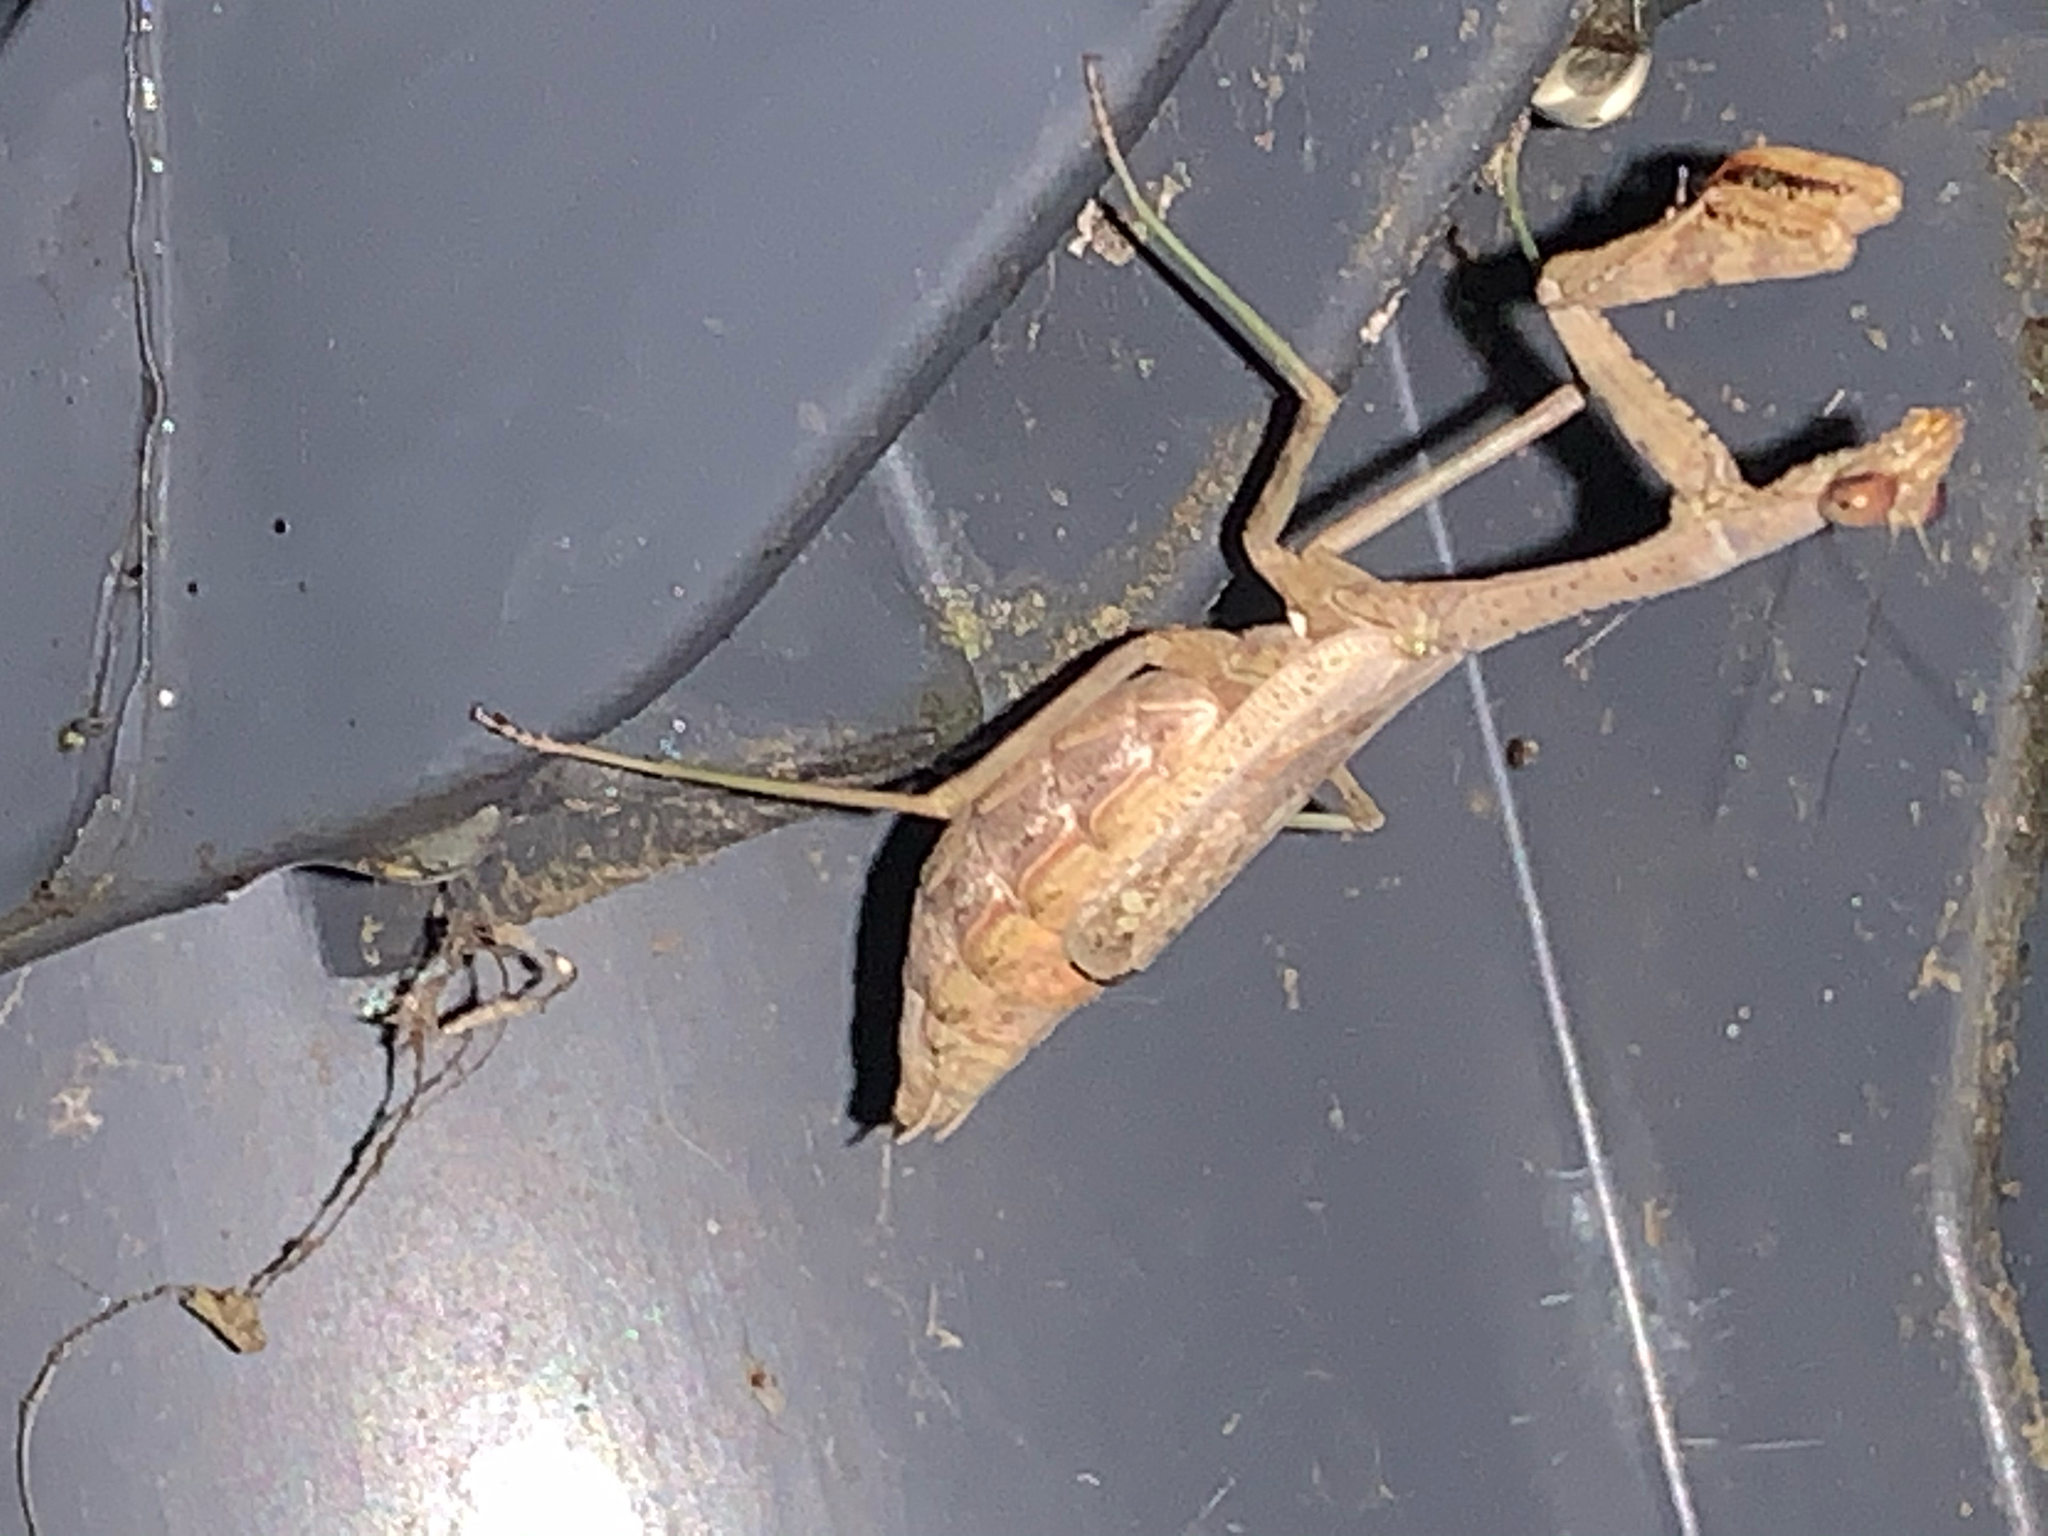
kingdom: Animalia
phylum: Arthropoda
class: Insecta
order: Mantodea
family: Mantidae
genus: Stagmomantis
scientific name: Stagmomantis carolina
